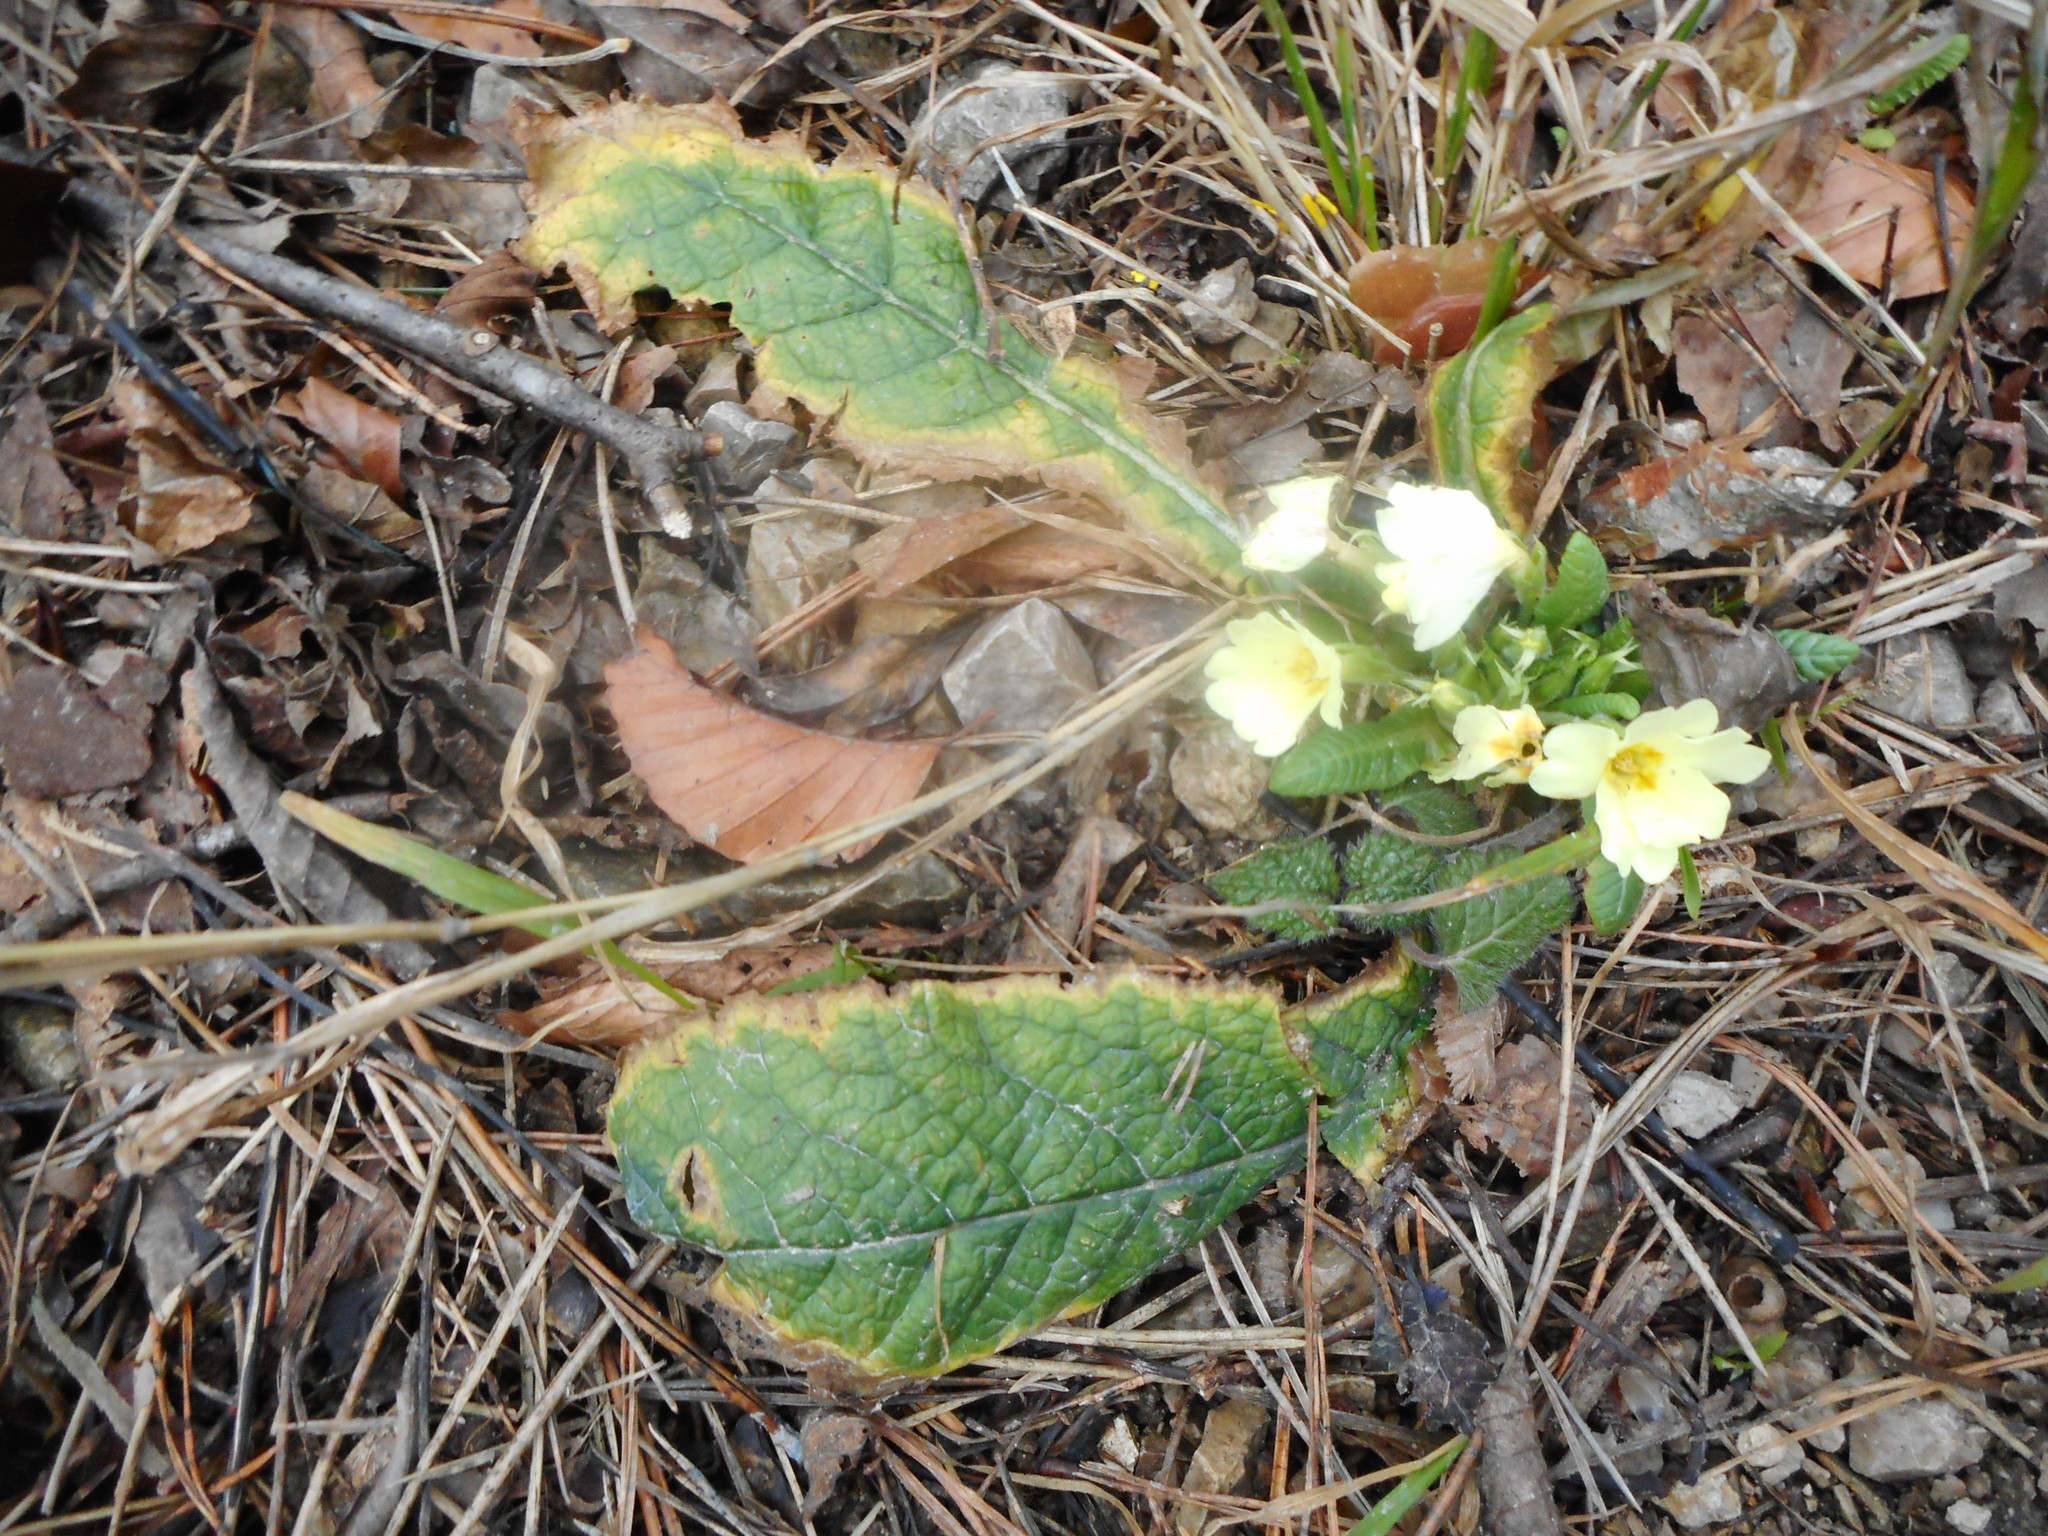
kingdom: Plantae
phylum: Tracheophyta
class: Magnoliopsida
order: Ericales
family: Primulaceae
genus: Primula
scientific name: Primula vulgaris
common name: Primrose
